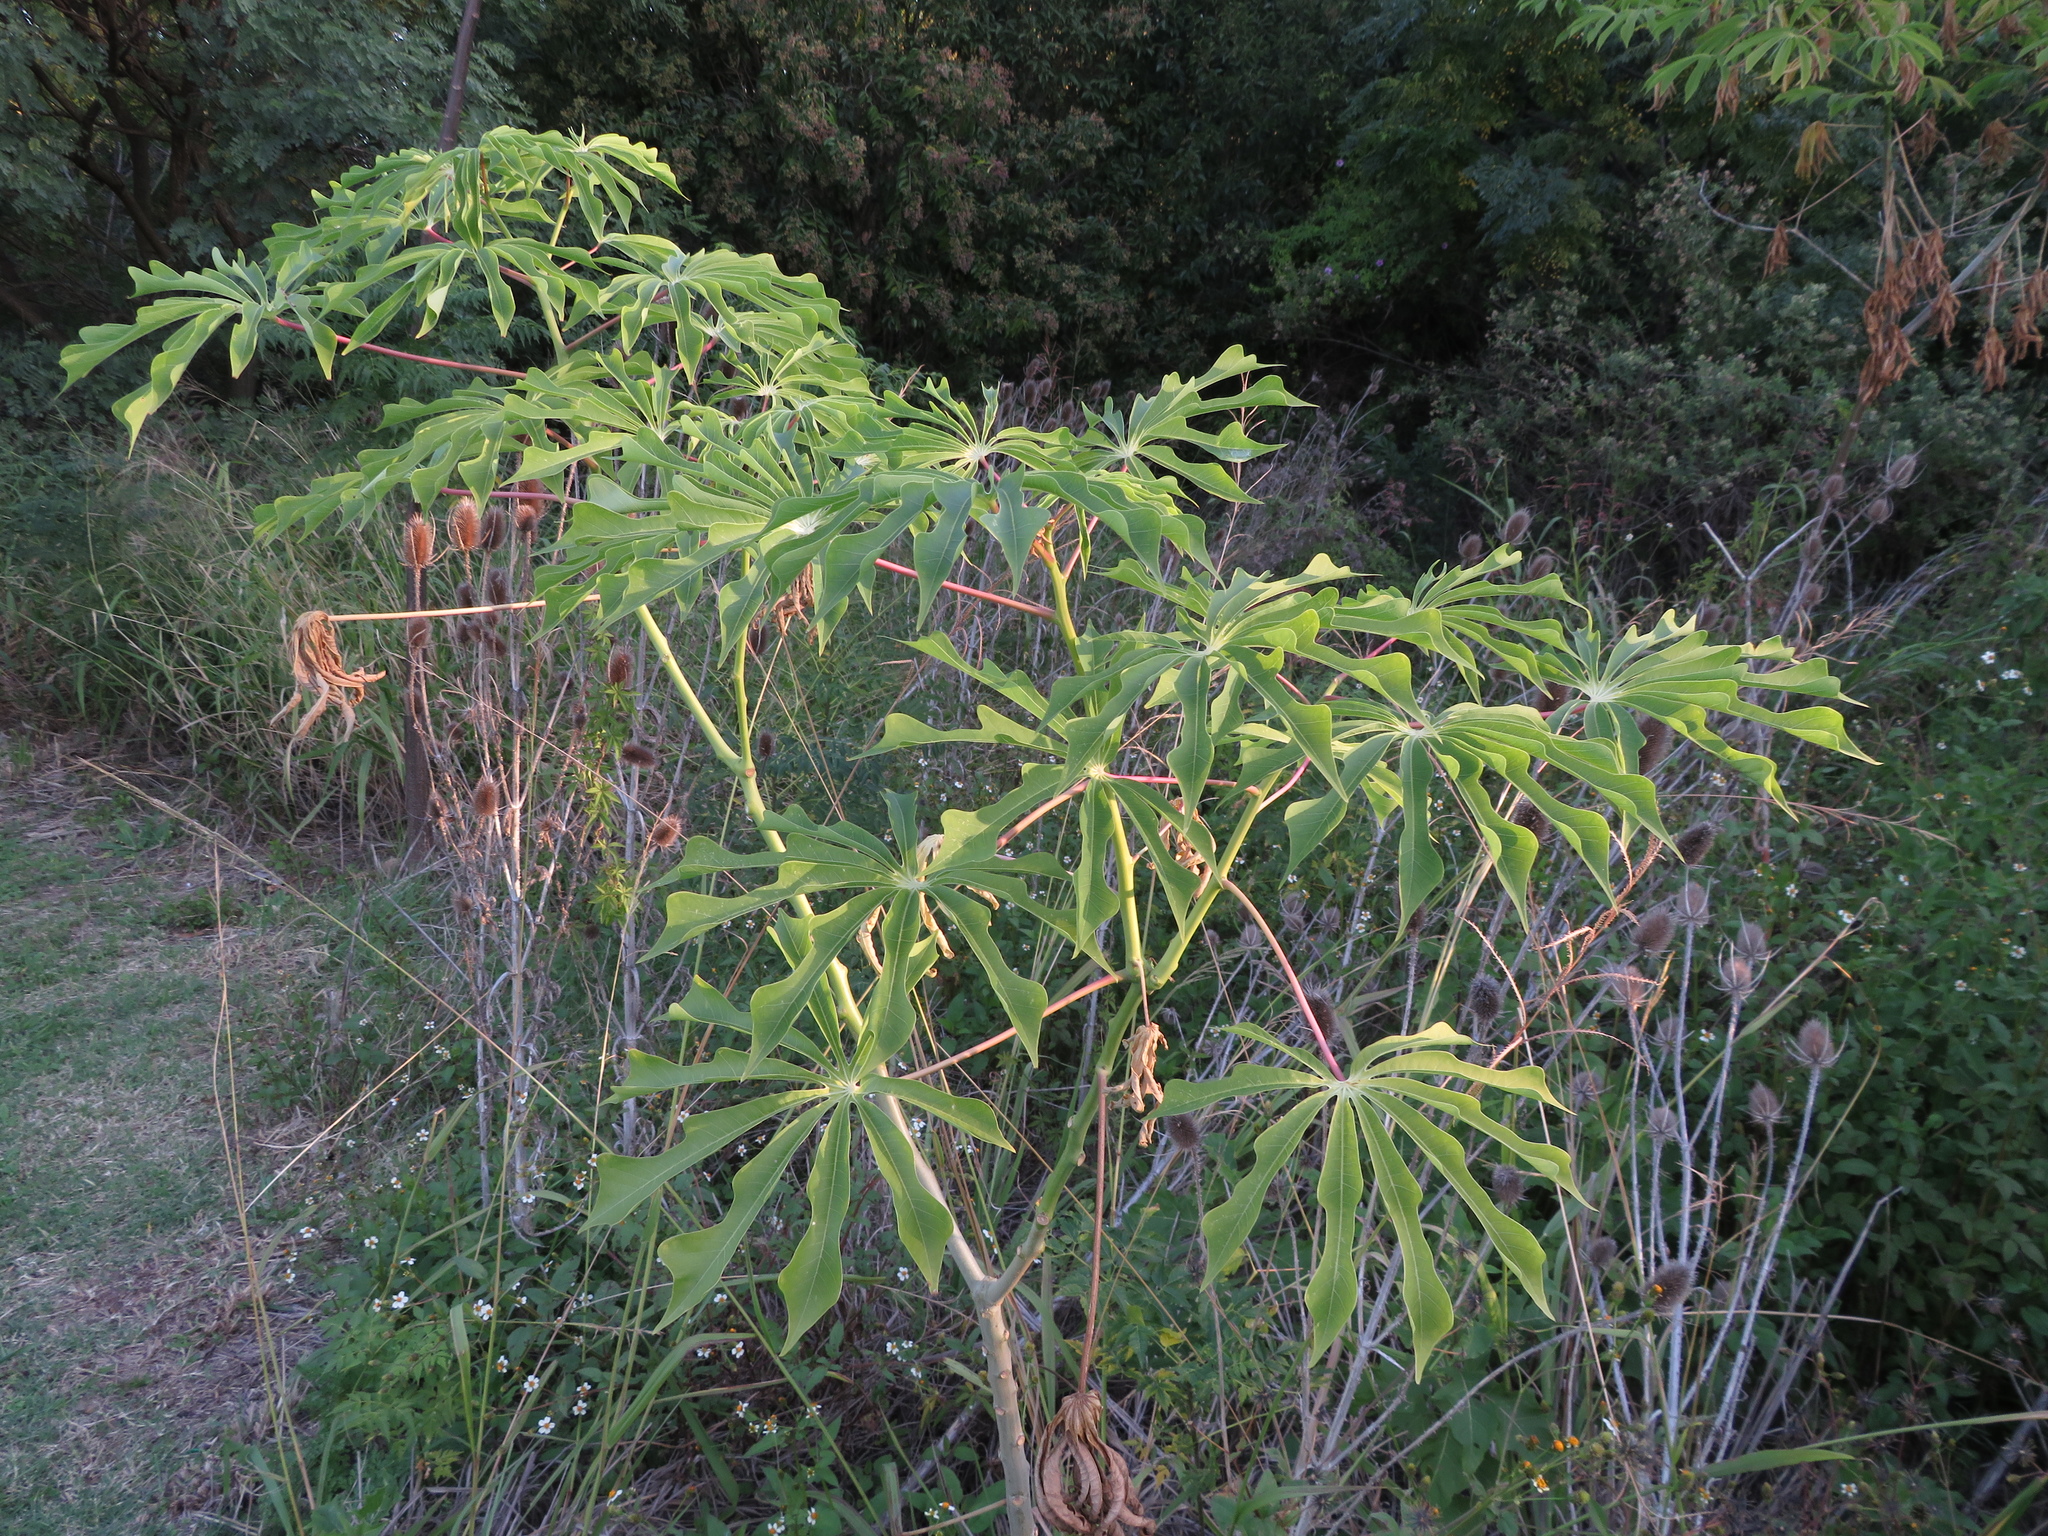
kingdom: Plantae
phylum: Tracheophyta
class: Magnoliopsida
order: Malpighiales
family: Euphorbiaceae
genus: Manihot
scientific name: Manihot grahamii
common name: Graham's manihot
